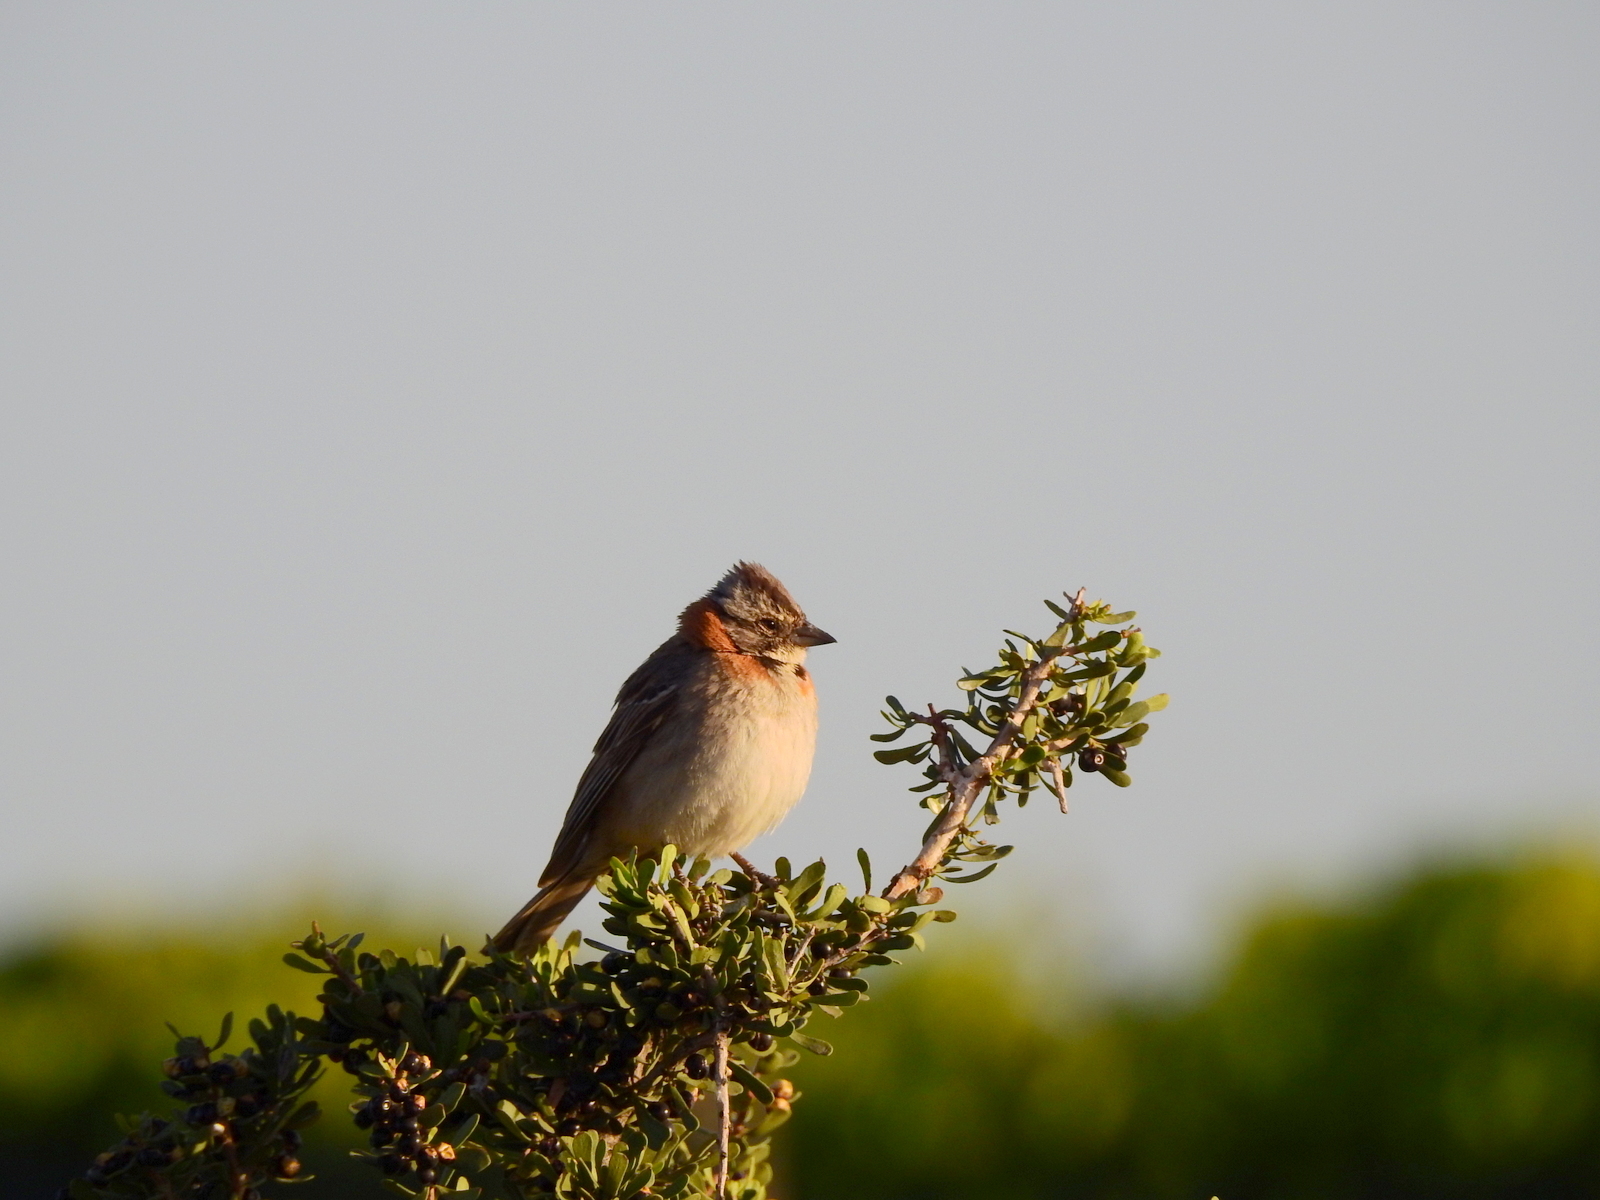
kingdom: Animalia
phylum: Chordata
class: Aves
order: Passeriformes
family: Passerellidae
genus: Zonotrichia
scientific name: Zonotrichia capensis
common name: Rufous-collared sparrow
